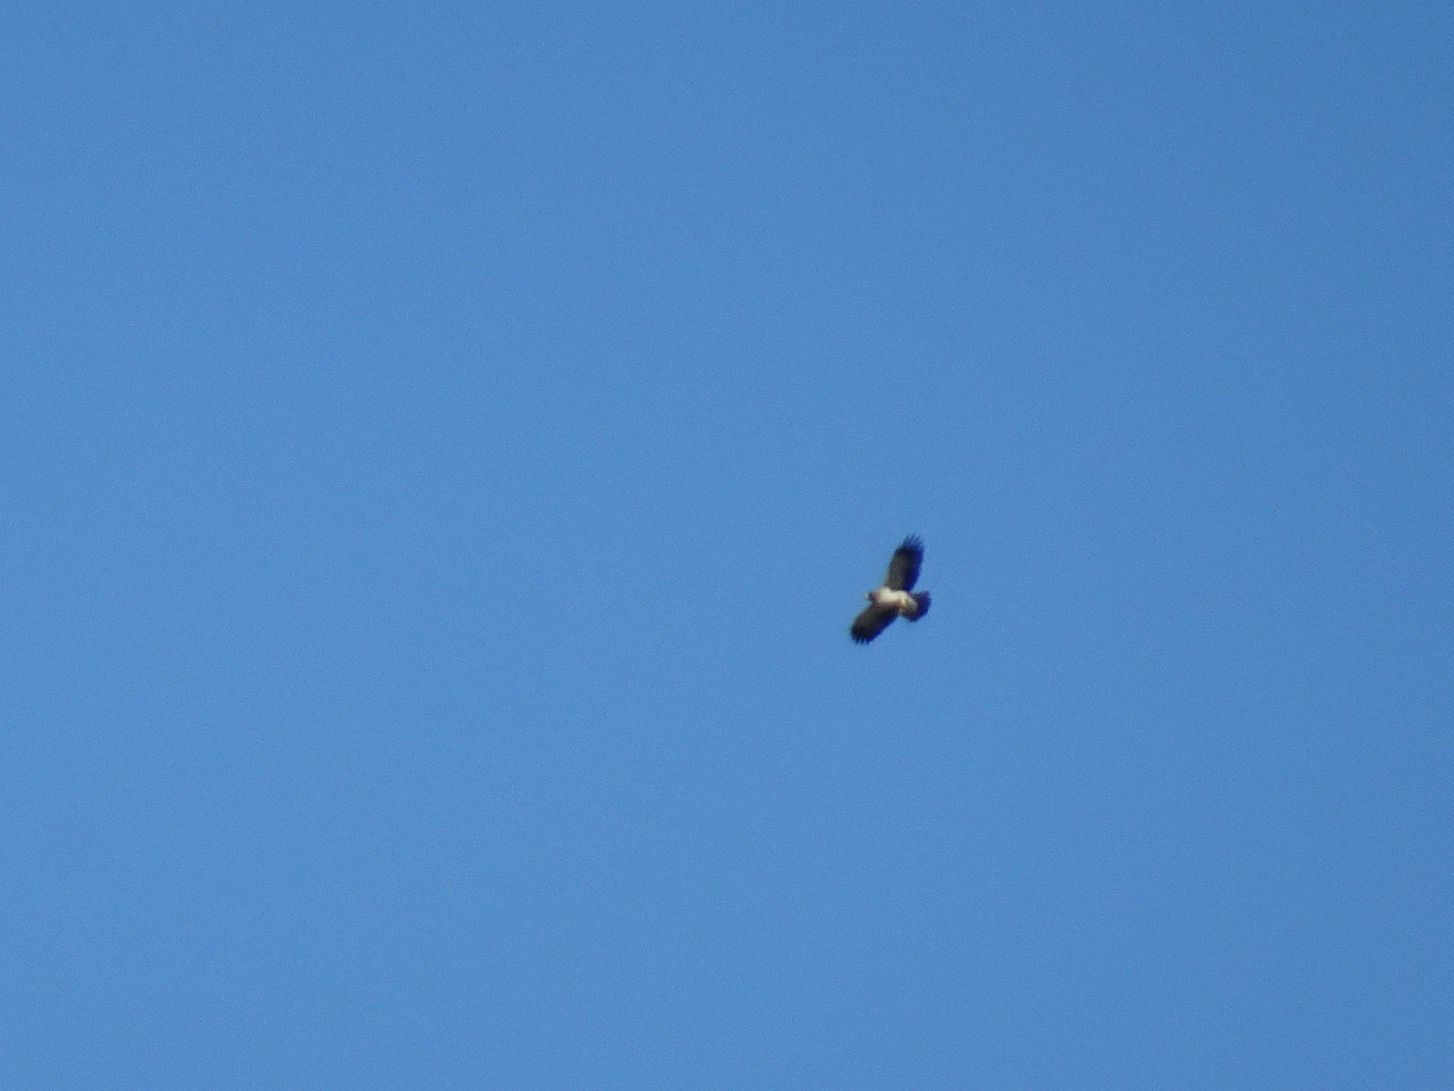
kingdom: Animalia
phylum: Chordata
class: Aves
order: Accipitriformes
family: Accipitridae
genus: Hieraaetus
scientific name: Hieraaetus pennatus
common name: Booted eagle
